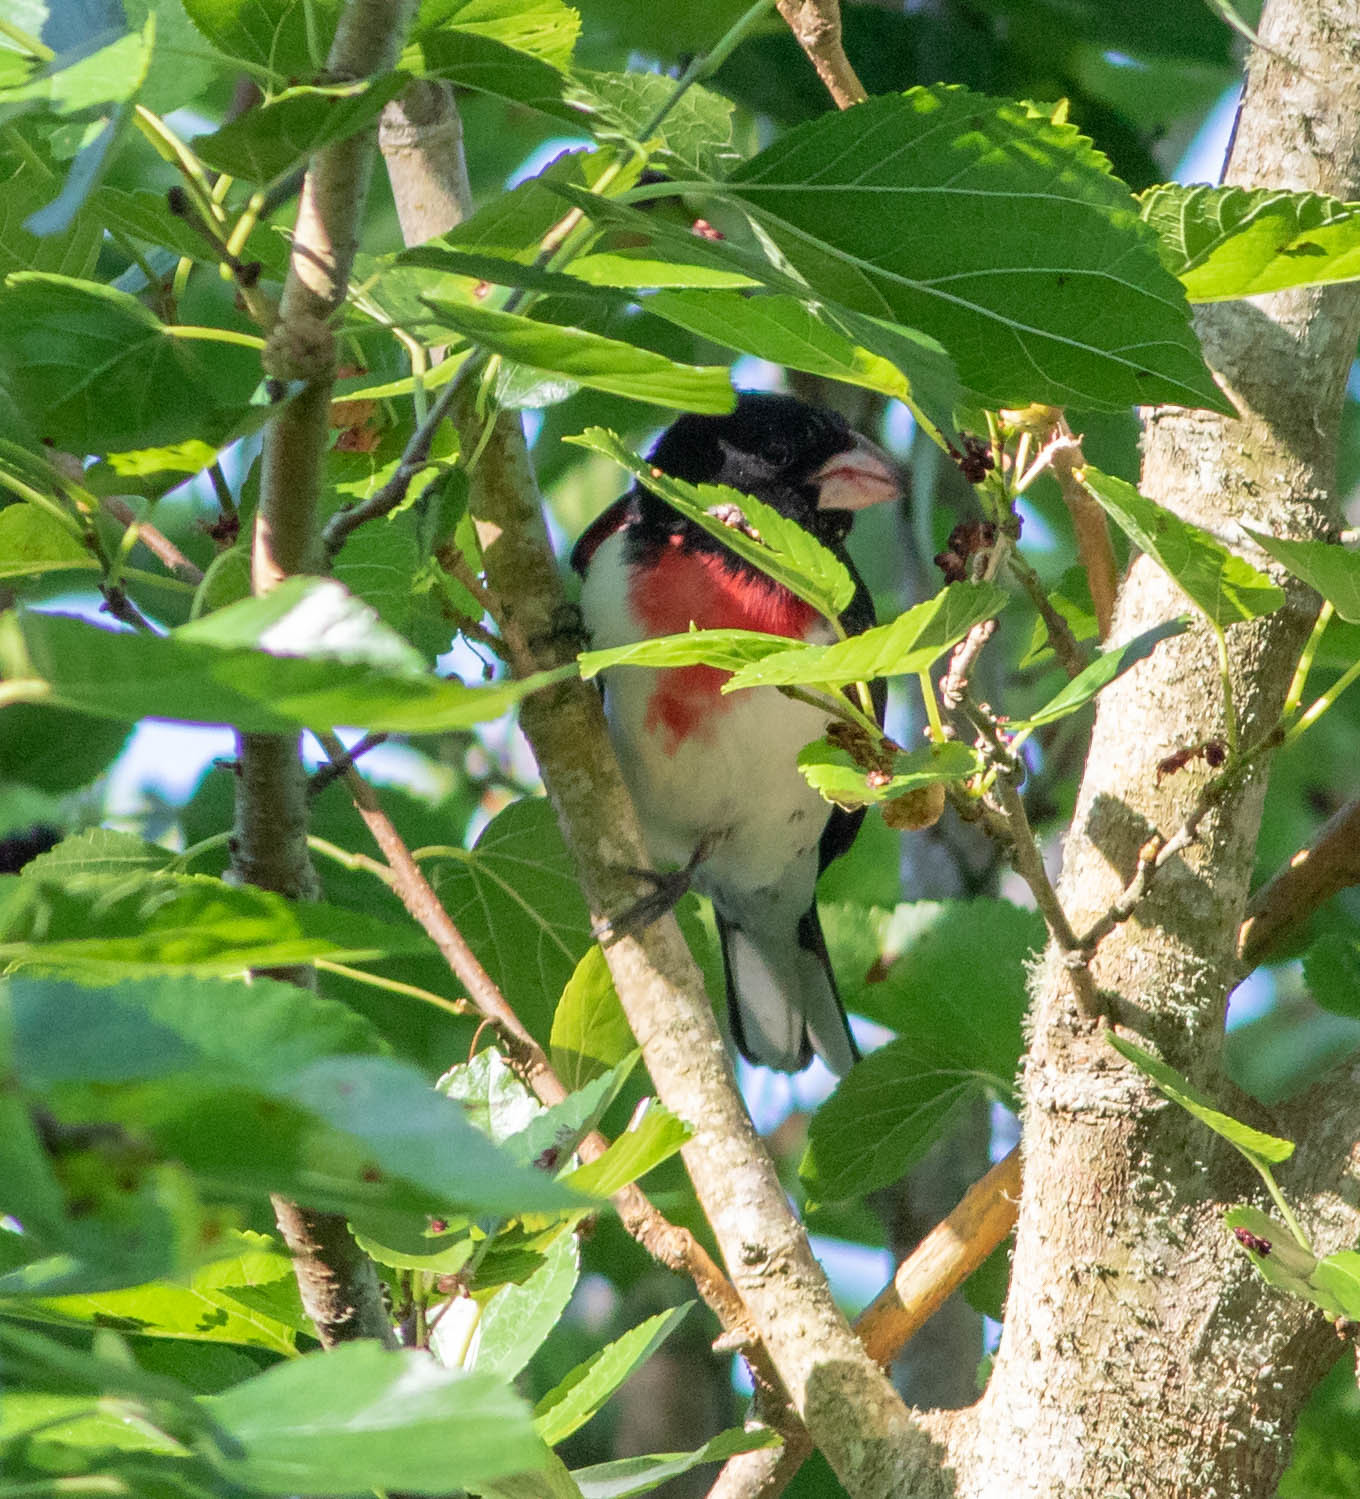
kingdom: Animalia
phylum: Chordata
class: Aves
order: Passeriformes
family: Cardinalidae
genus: Pheucticus
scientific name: Pheucticus ludovicianus
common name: Rose-breasted grosbeak
